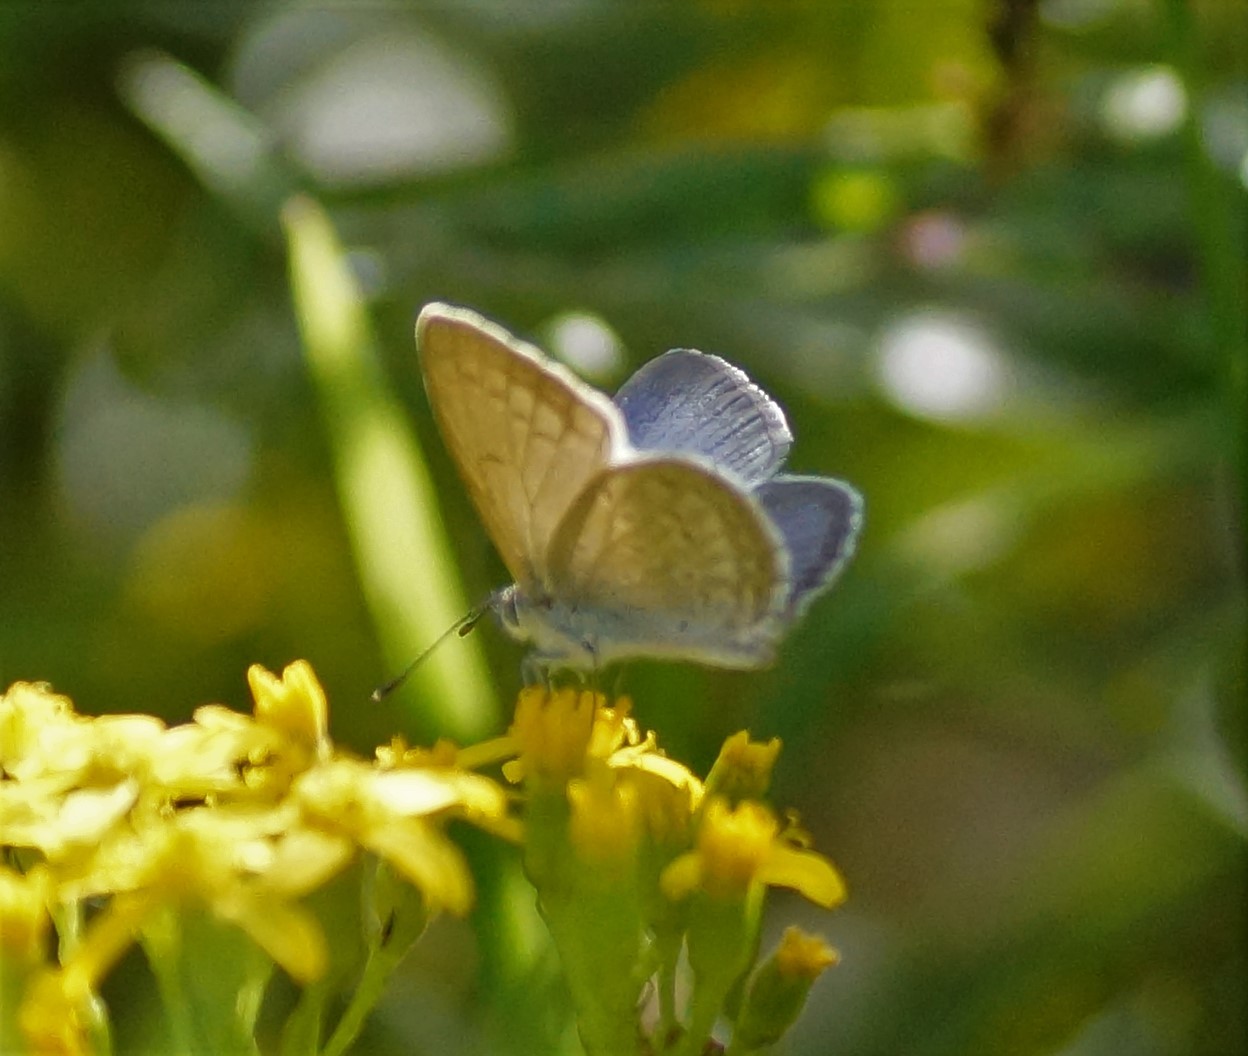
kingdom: Animalia
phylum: Arthropoda
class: Insecta
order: Lepidoptera
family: Lycaenidae
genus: Zizina
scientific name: Zizina labradus
